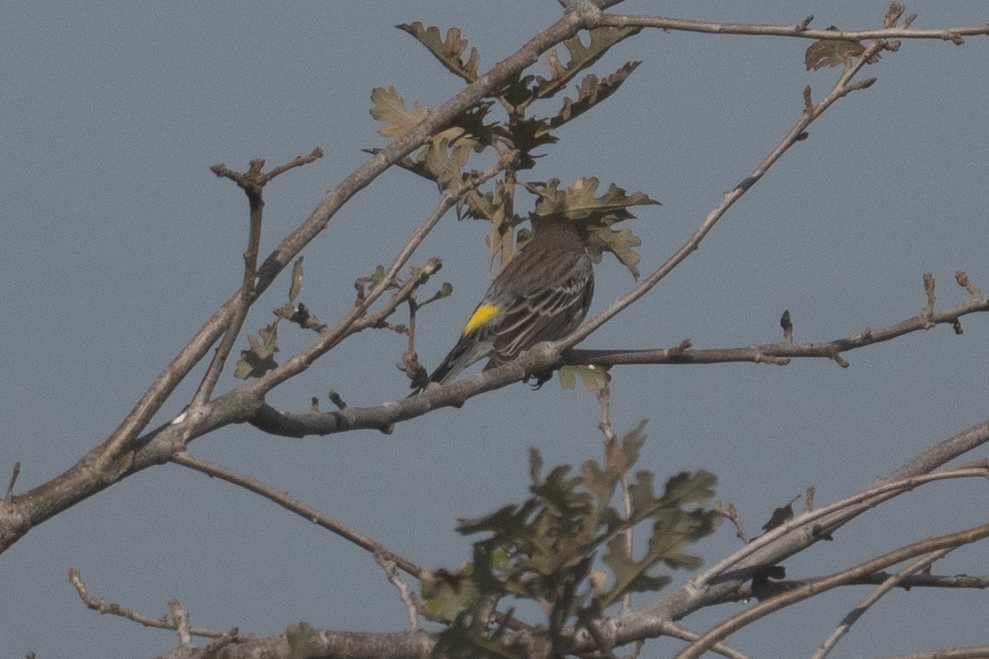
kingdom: Animalia
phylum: Chordata
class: Aves
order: Passeriformes
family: Parulidae
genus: Setophaga
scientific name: Setophaga coronata
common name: Myrtle warbler
